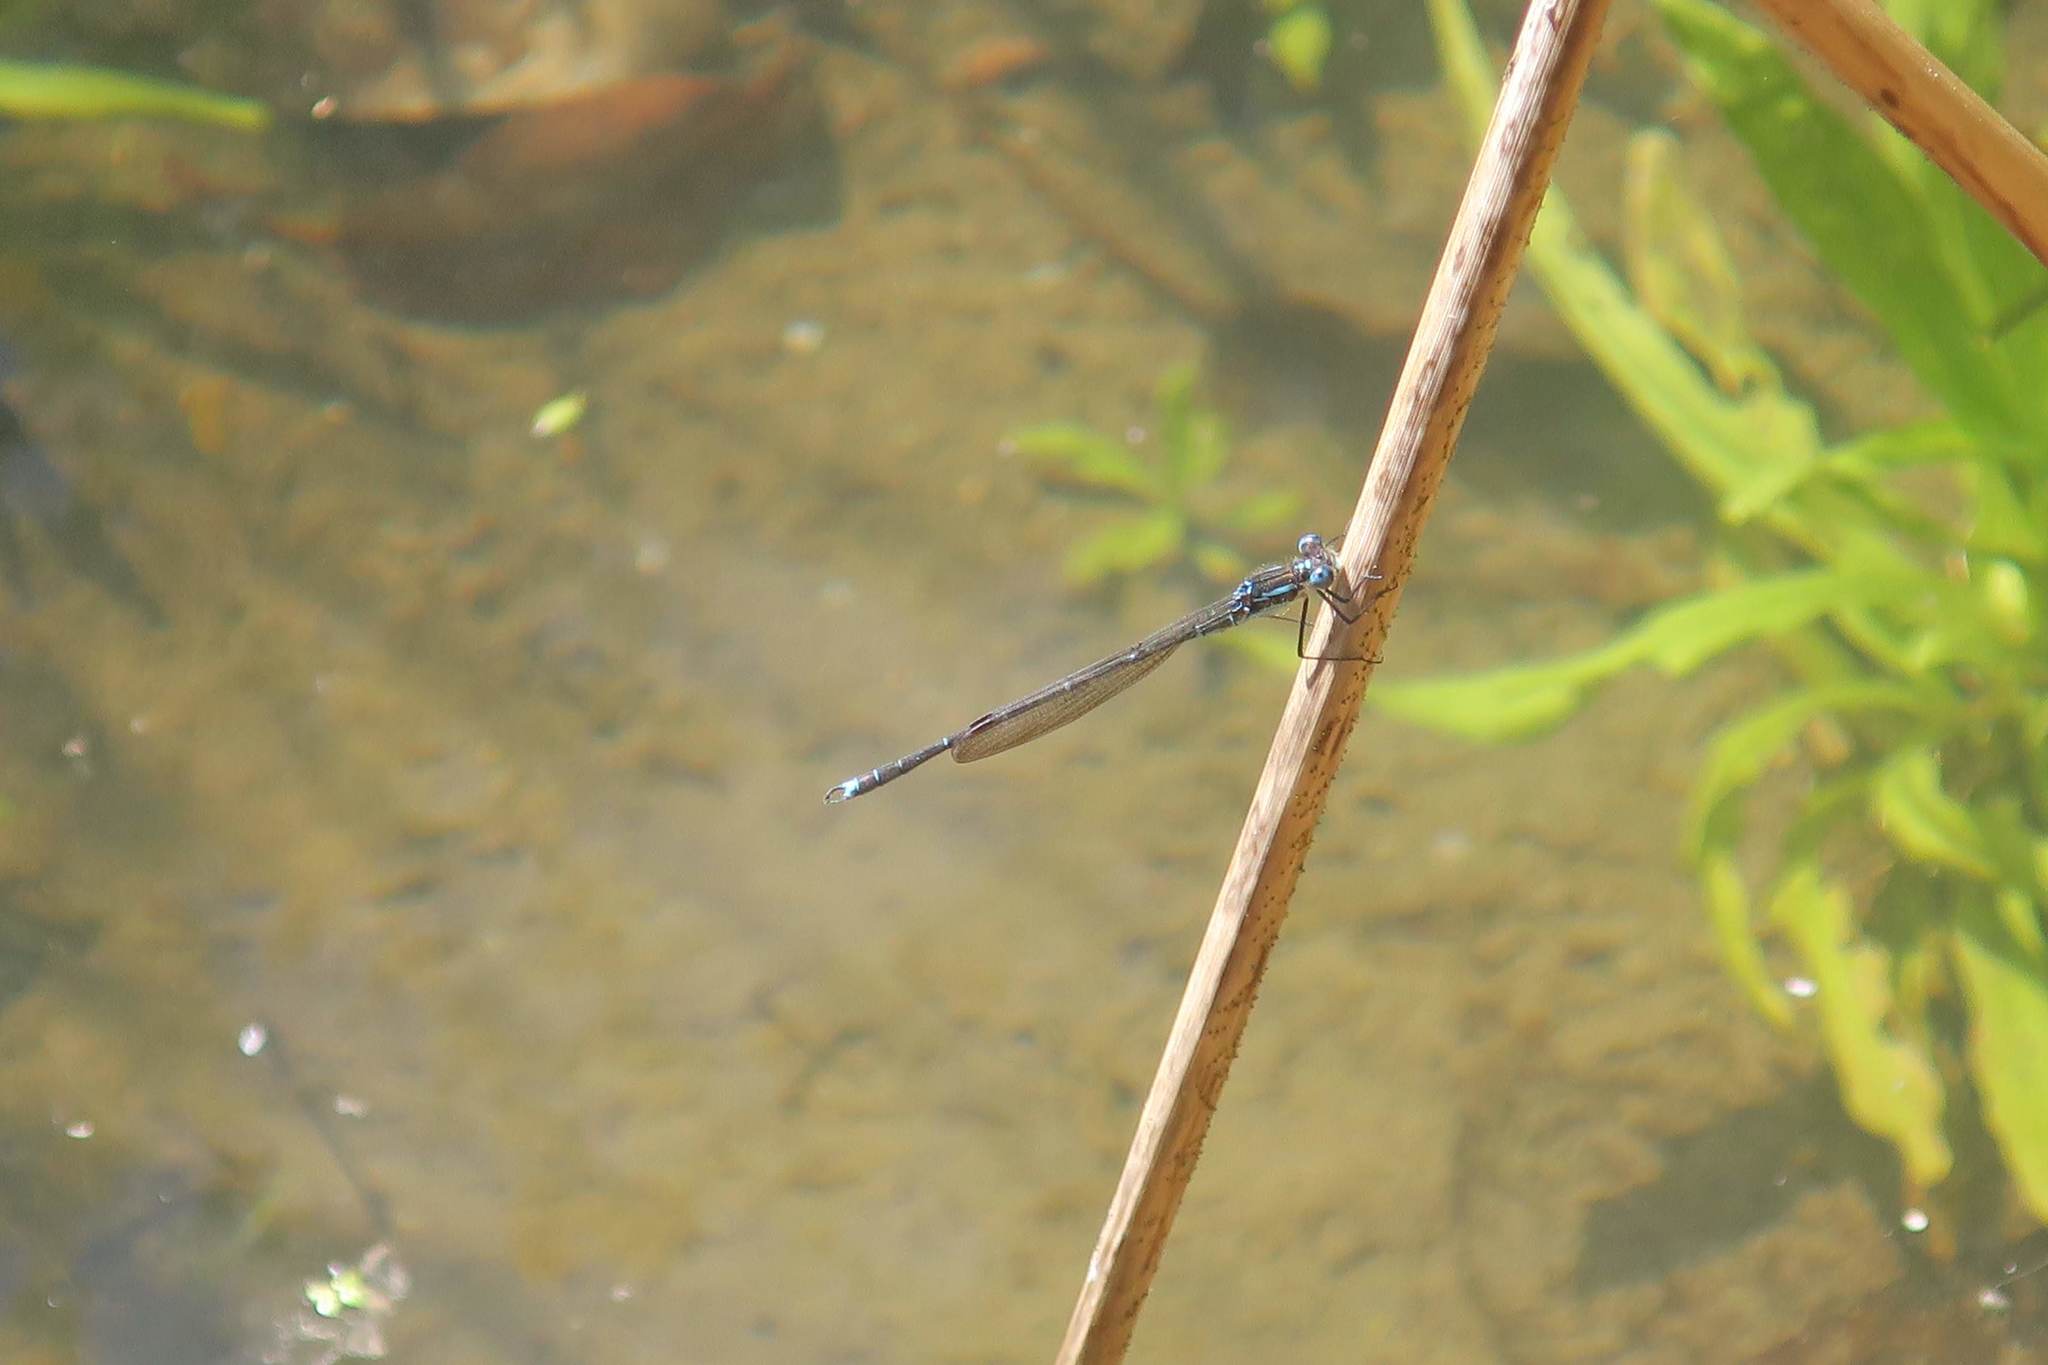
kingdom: Animalia
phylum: Arthropoda
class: Insecta
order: Odonata
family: Lestidae
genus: Austrolestes
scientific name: Austrolestes colensonis
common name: Blue damselfly
